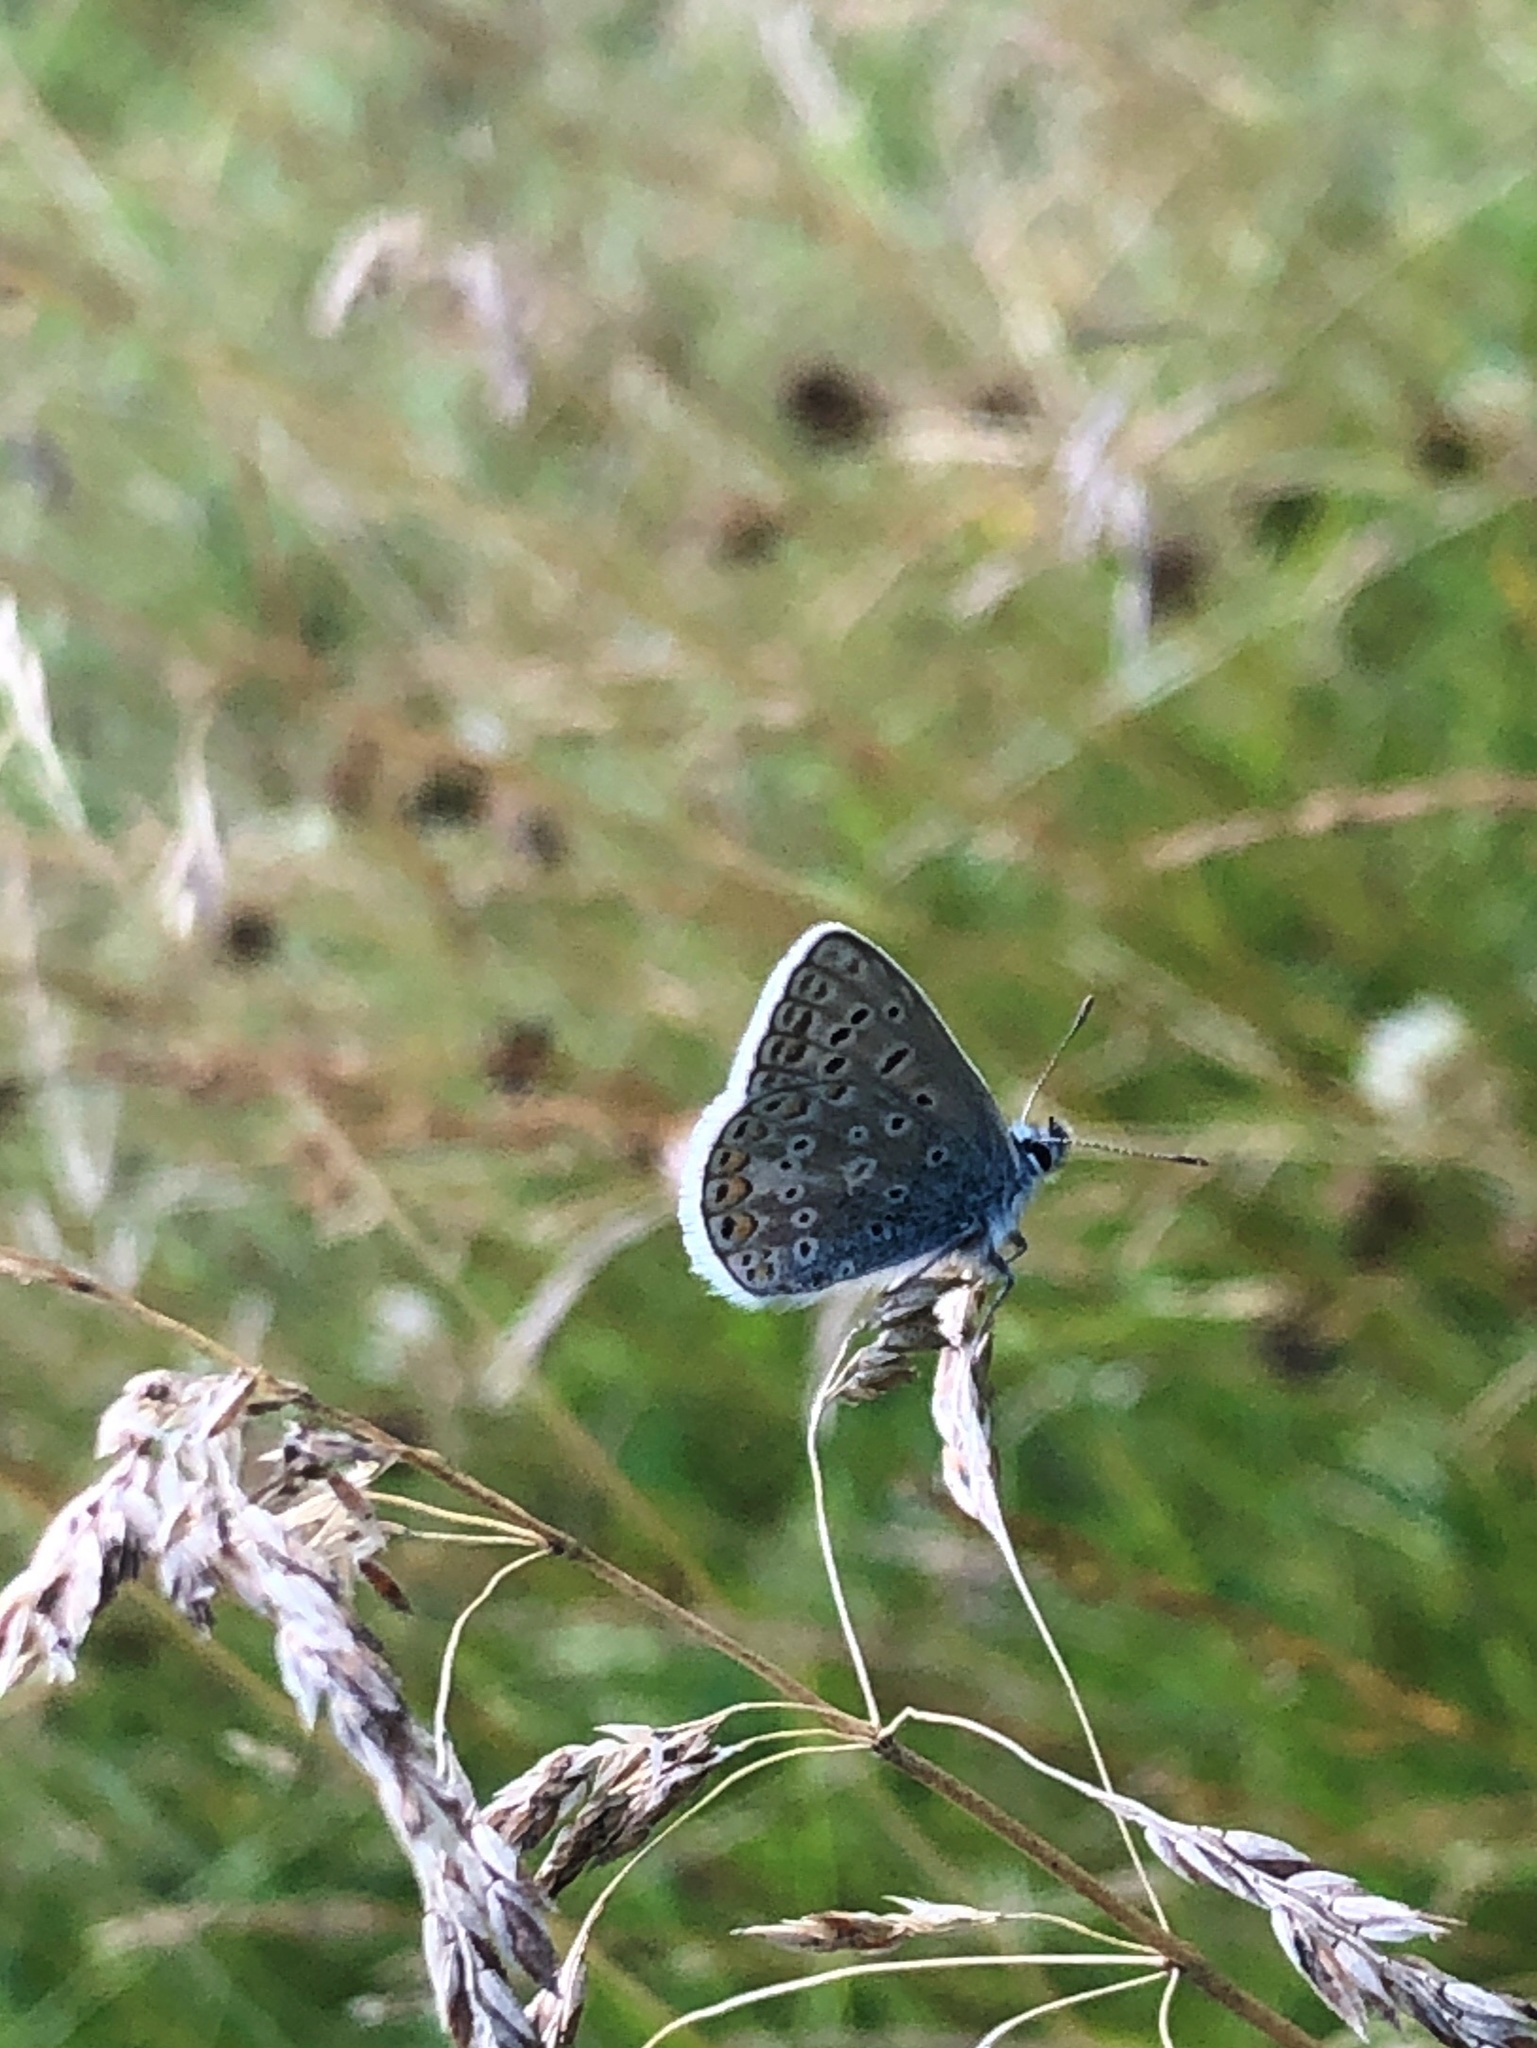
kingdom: Animalia
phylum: Arthropoda
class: Insecta
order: Lepidoptera
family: Lycaenidae
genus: Polyommatus
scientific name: Polyommatus icarus
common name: Common blue
